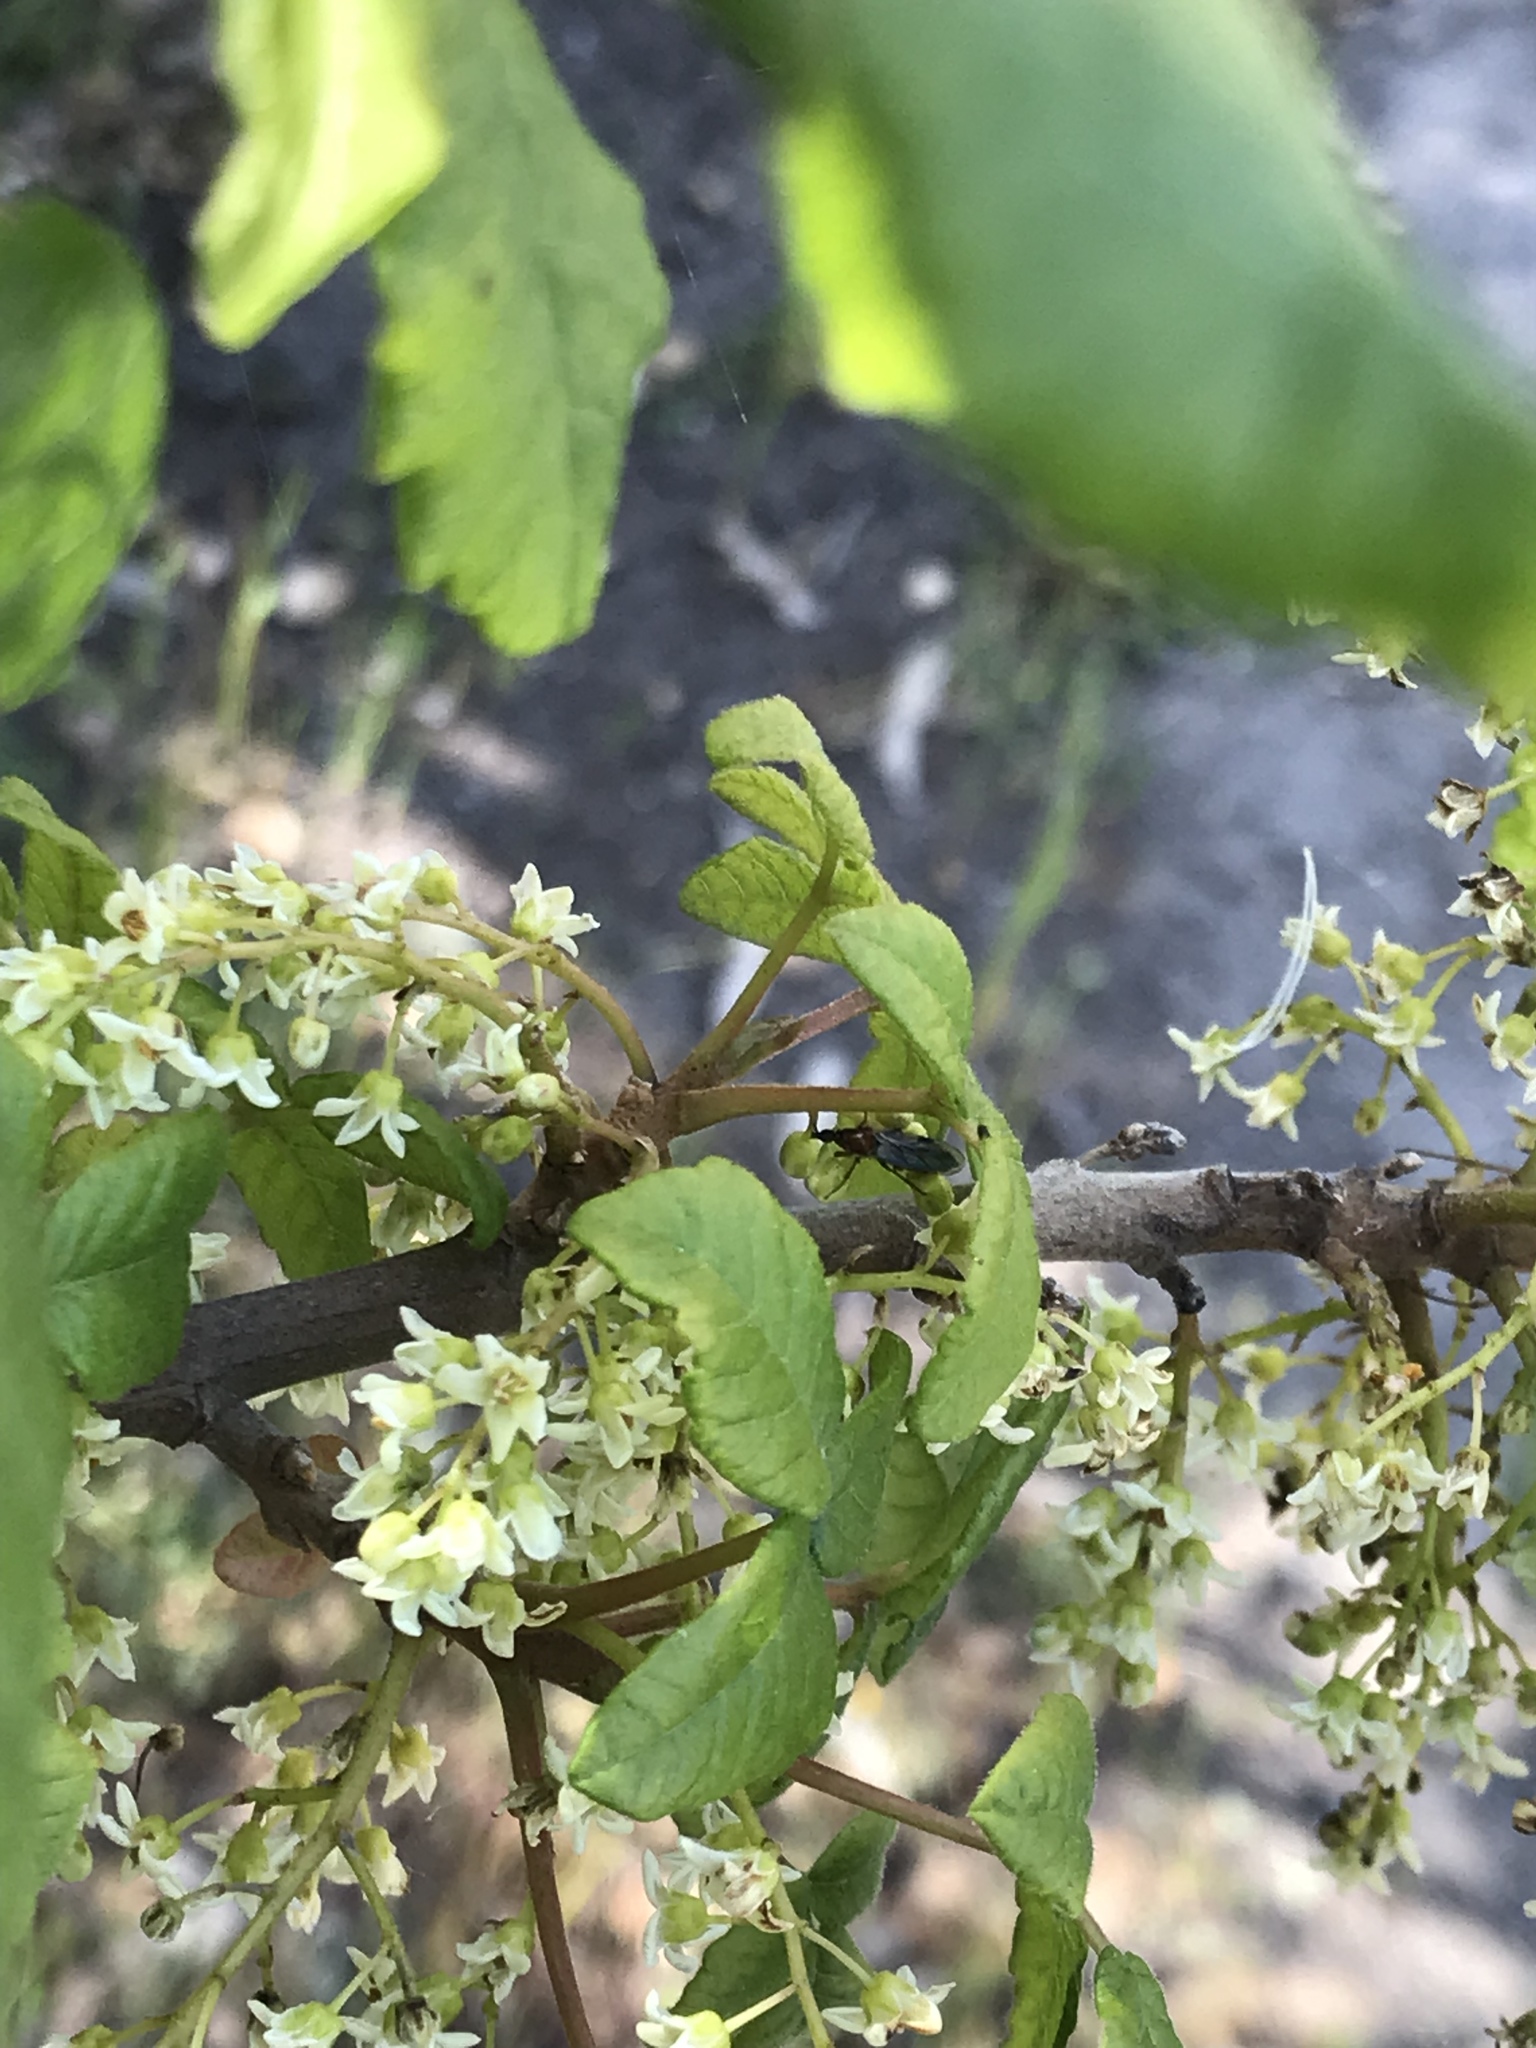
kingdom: Animalia
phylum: Arthropoda
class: Insecta
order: Diptera
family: Bibionidae
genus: Dilophus
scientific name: Dilophus
